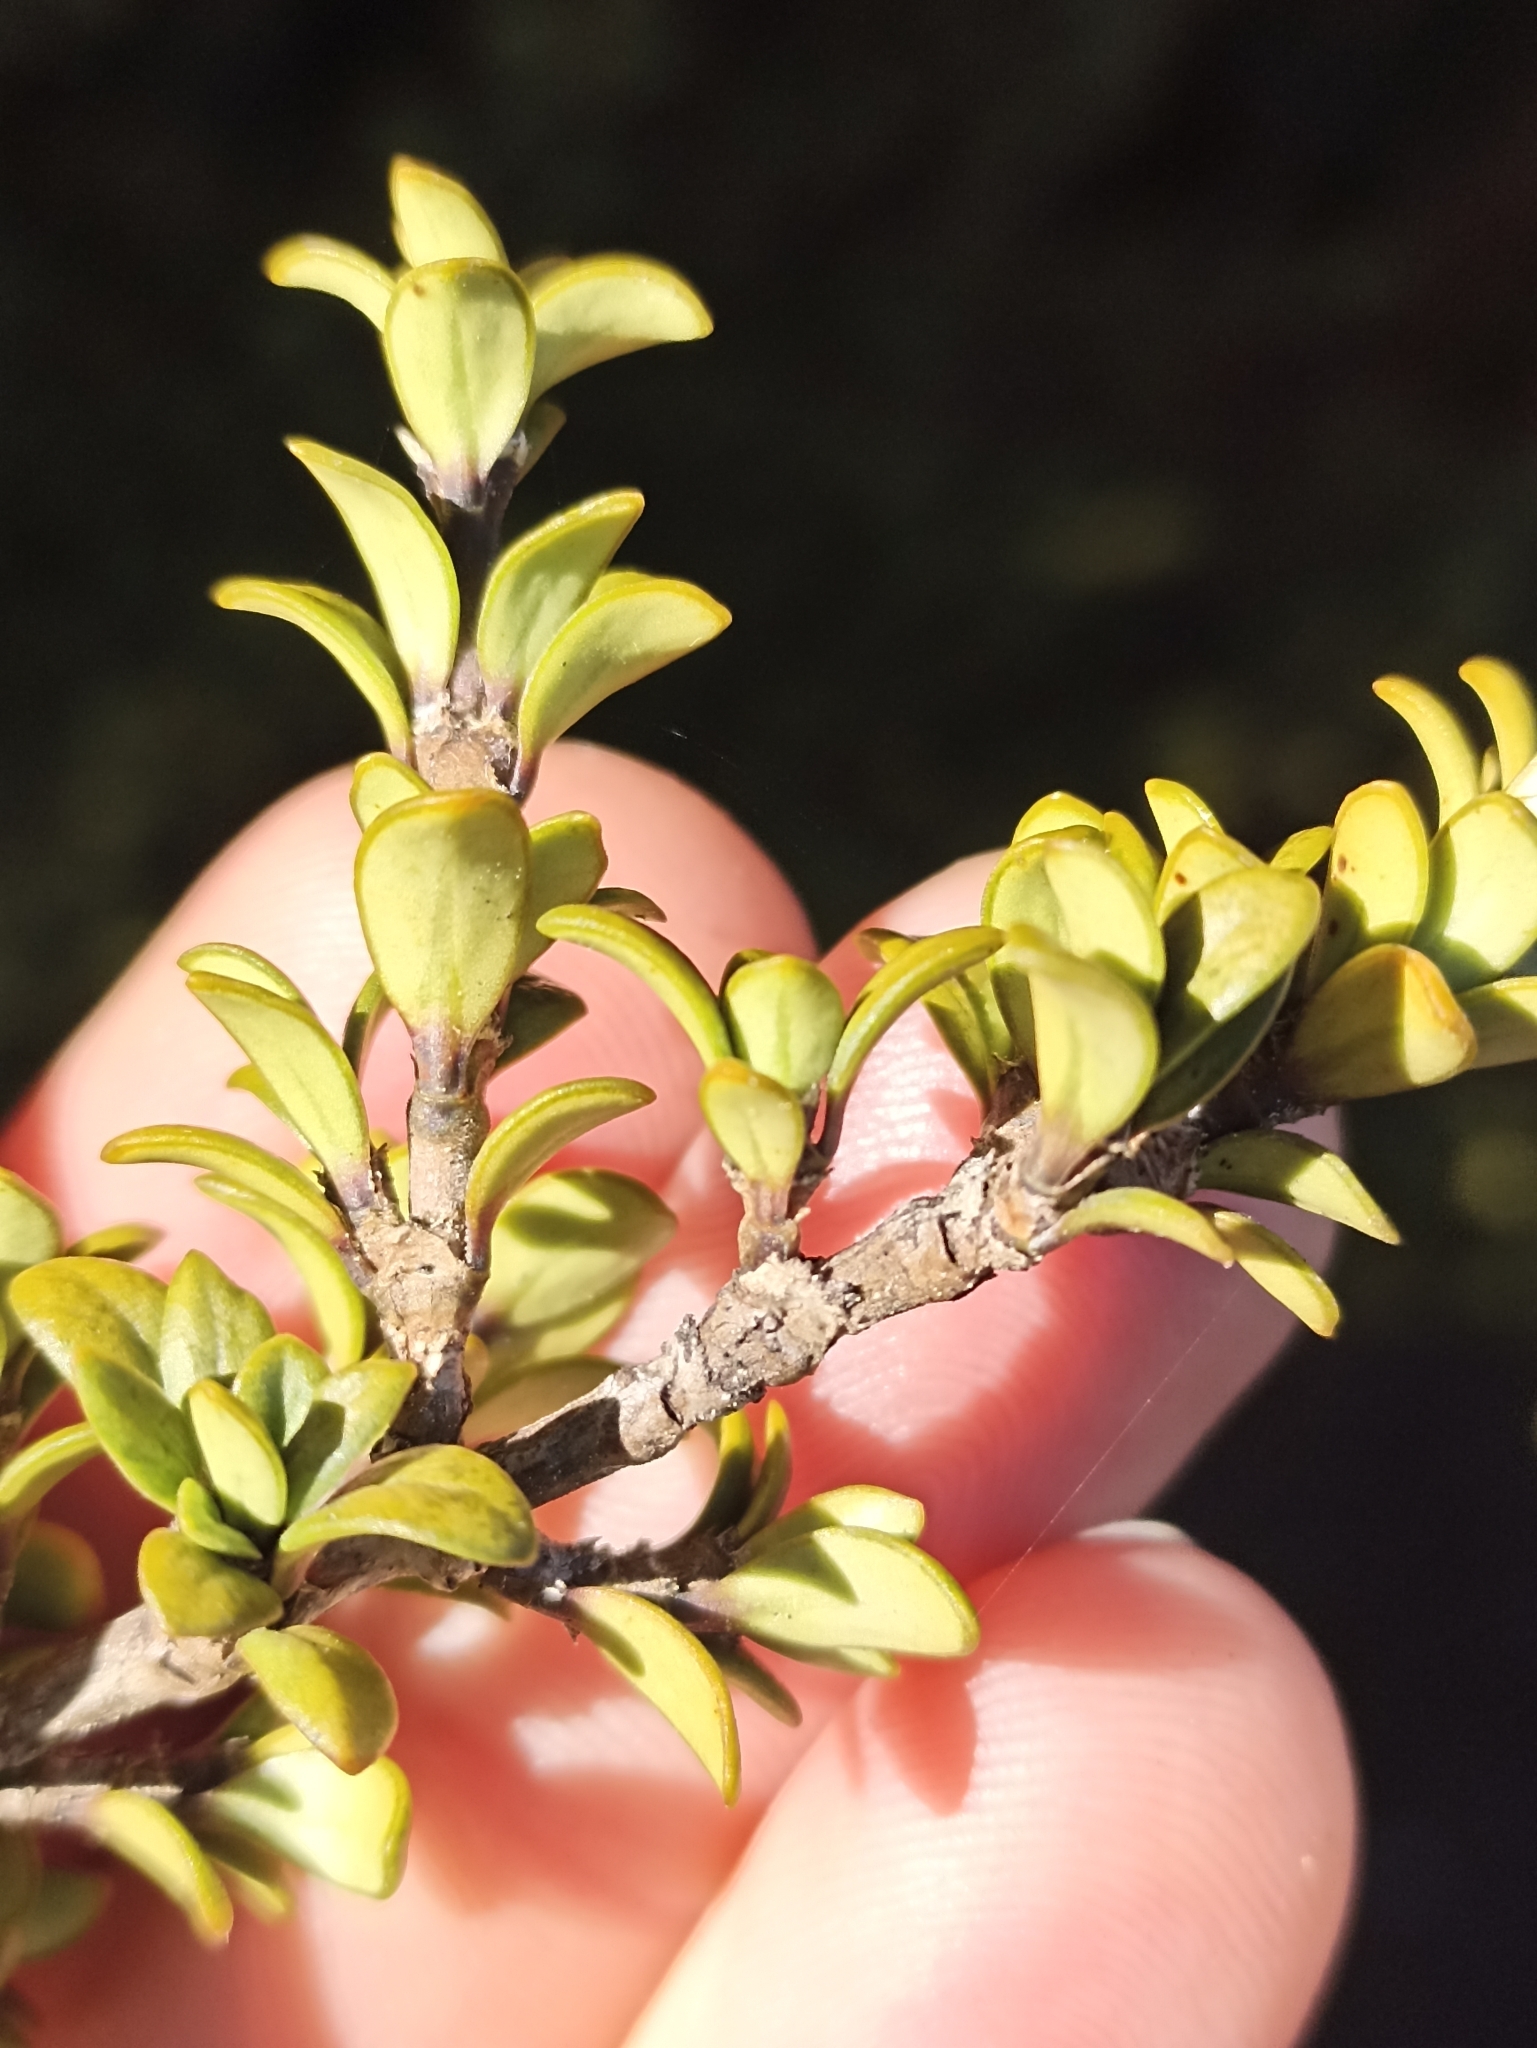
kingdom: Plantae
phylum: Tracheophyta
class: Magnoliopsida
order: Gentianales
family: Rubiaceae
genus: Coprosma
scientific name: Coprosma pseudocuneata
